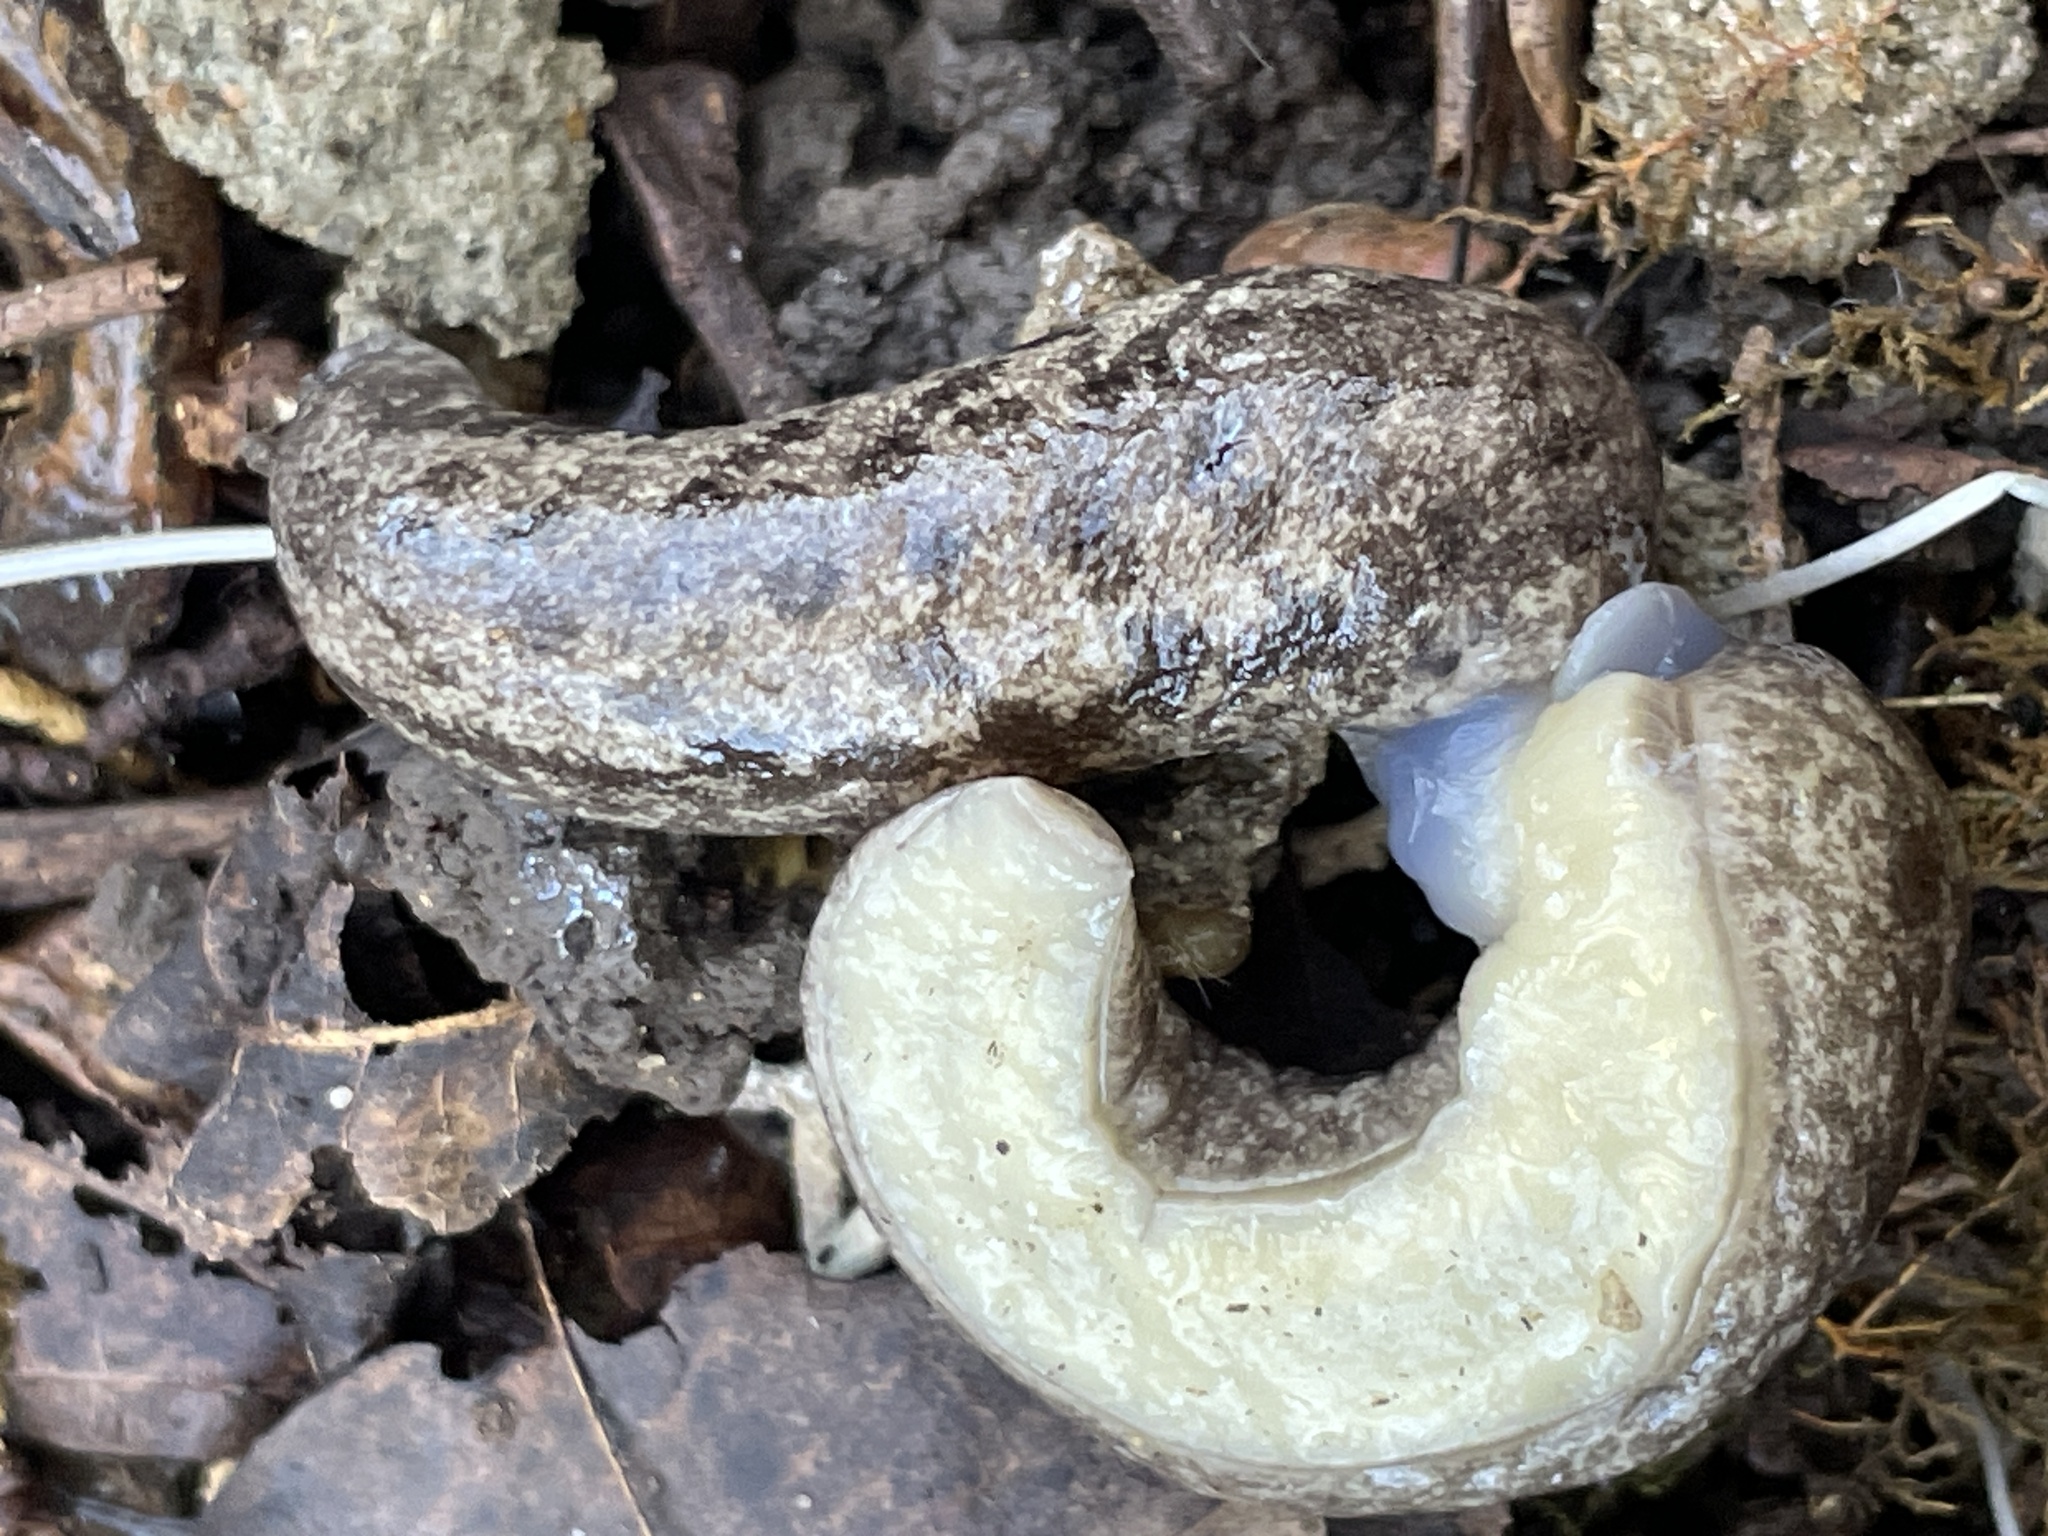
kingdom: Animalia
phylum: Mollusca
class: Gastropoda
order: Stylommatophora
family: Philomycidae
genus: Megapallifera
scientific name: Megapallifera mutabilis
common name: Changeable mantleslug
